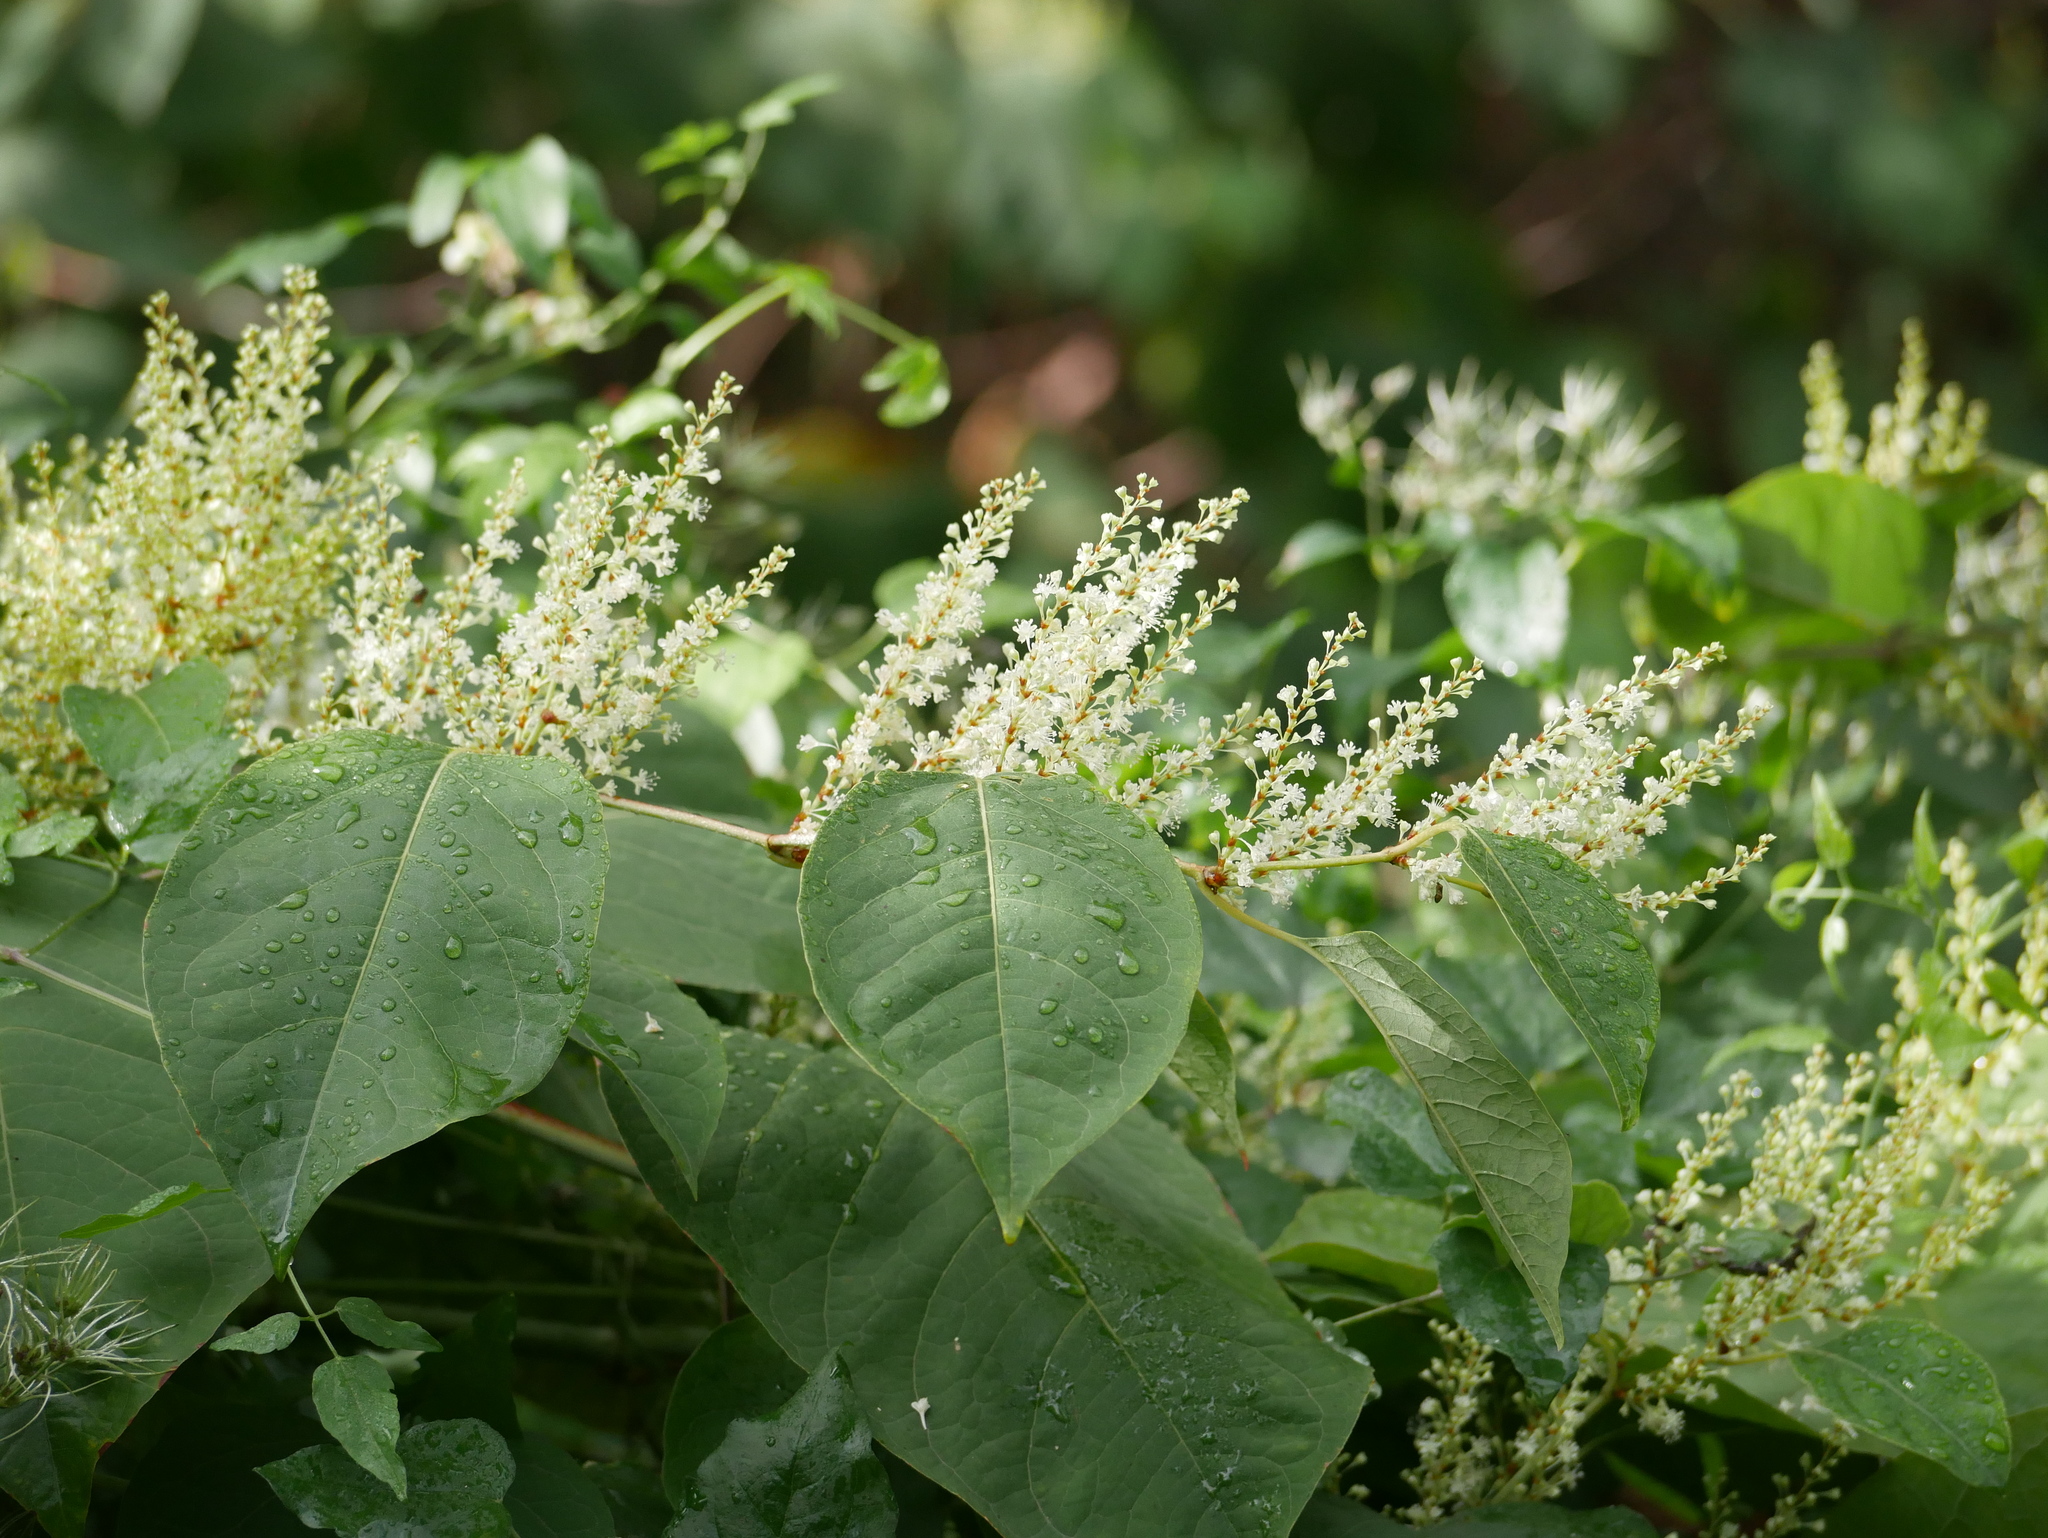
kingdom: Plantae
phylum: Tracheophyta
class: Magnoliopsida
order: Caryophyllales
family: Polygonaceae
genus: Reynoutria
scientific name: Reynoutria japonica
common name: Japanese knotweed
